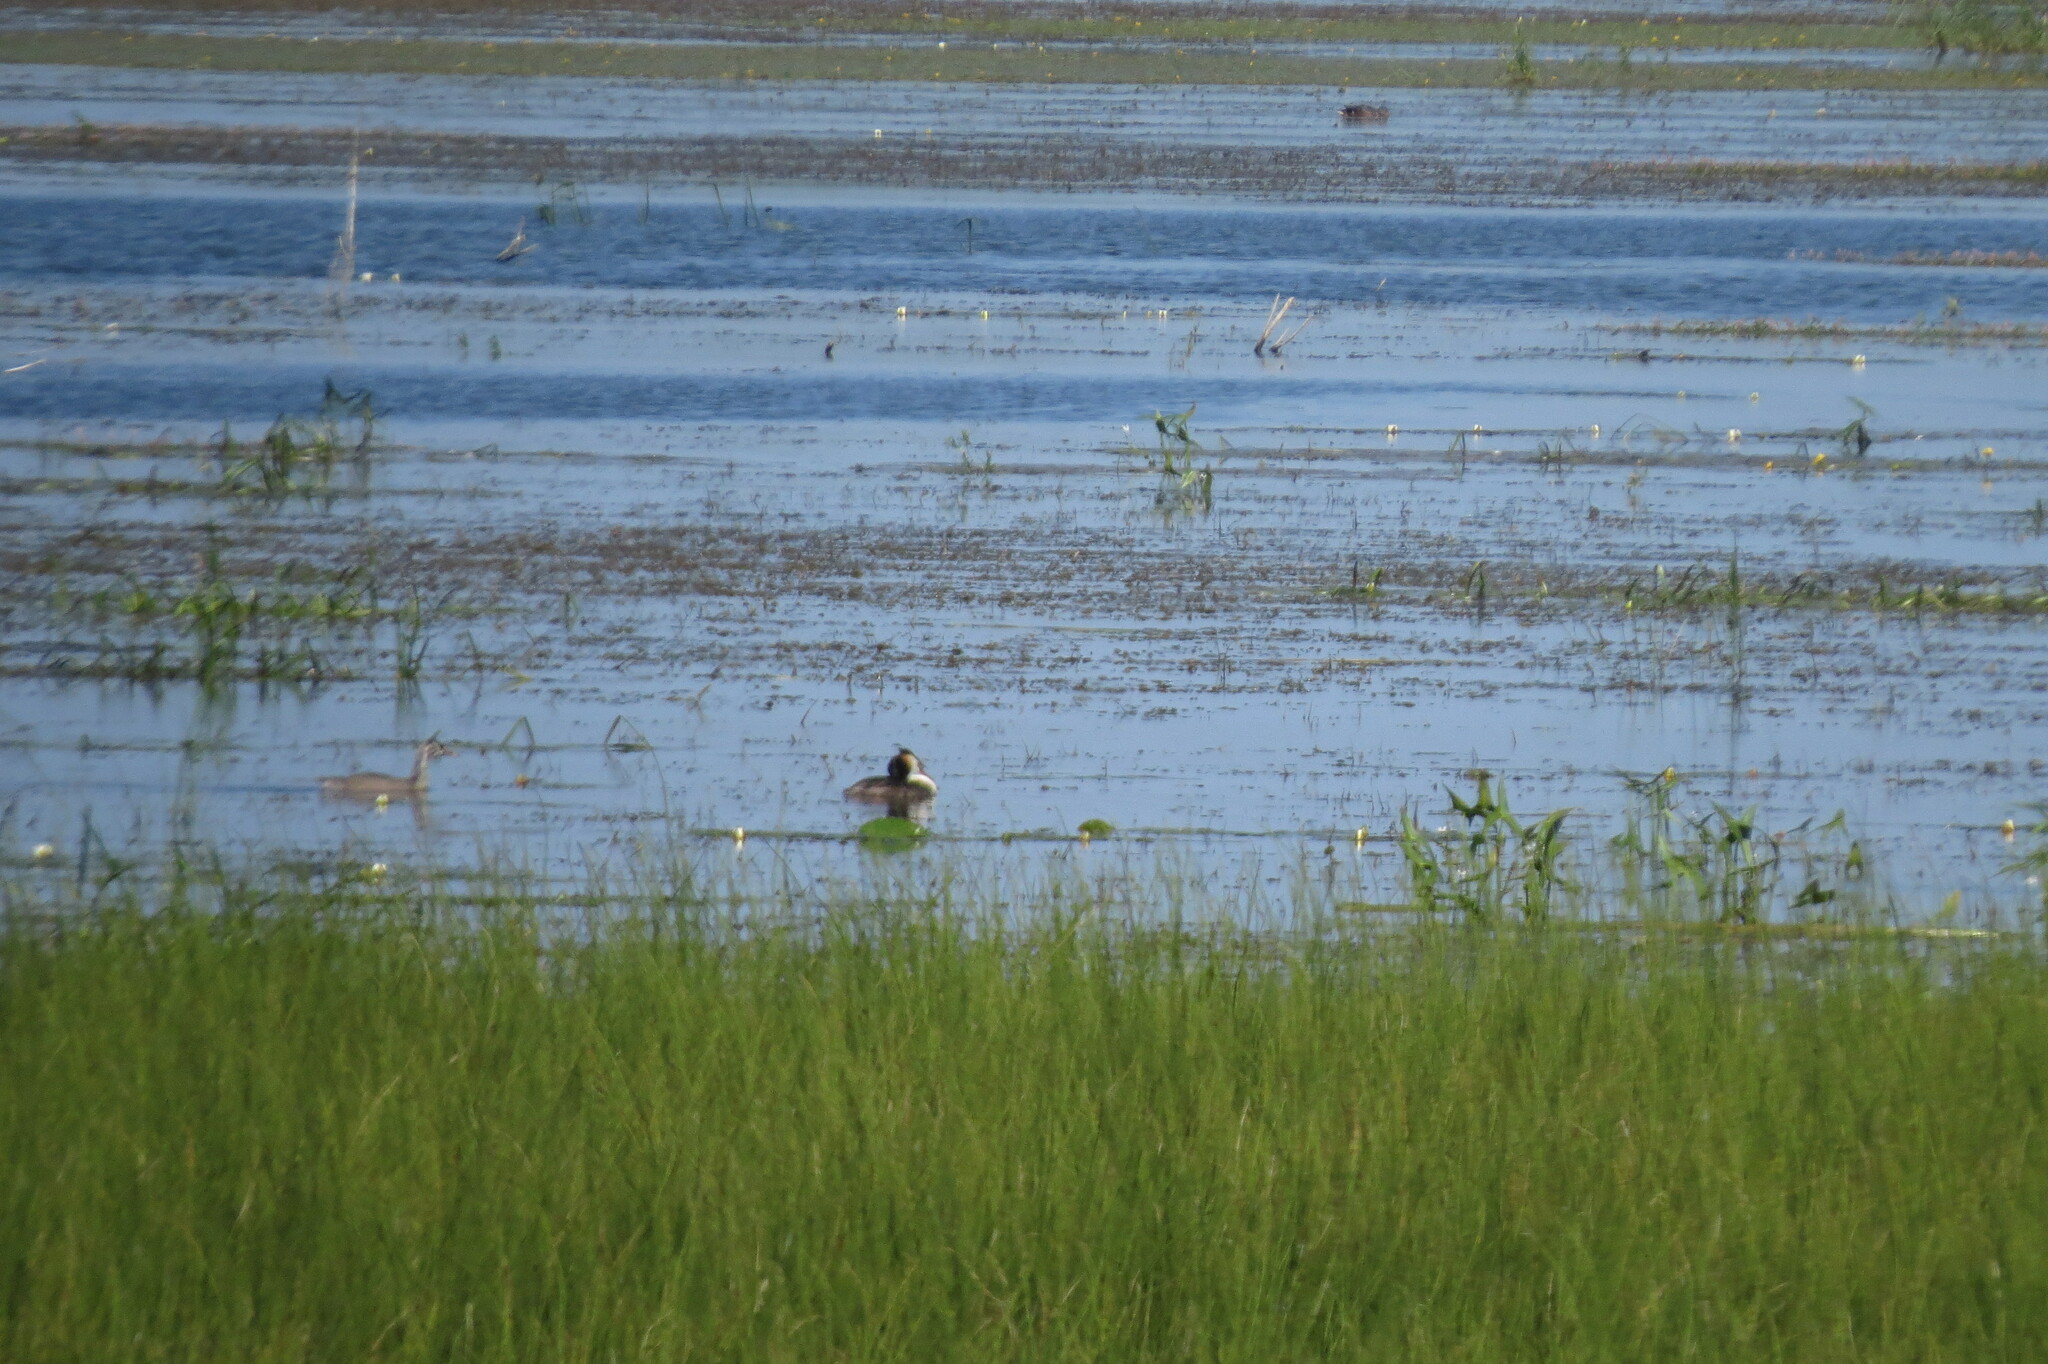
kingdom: Animalia
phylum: Chordata
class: Aves
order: Podicipediformes
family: Podicipedidae
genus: Podiceps
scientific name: Podiceps cristatus
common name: Great crested grebe
